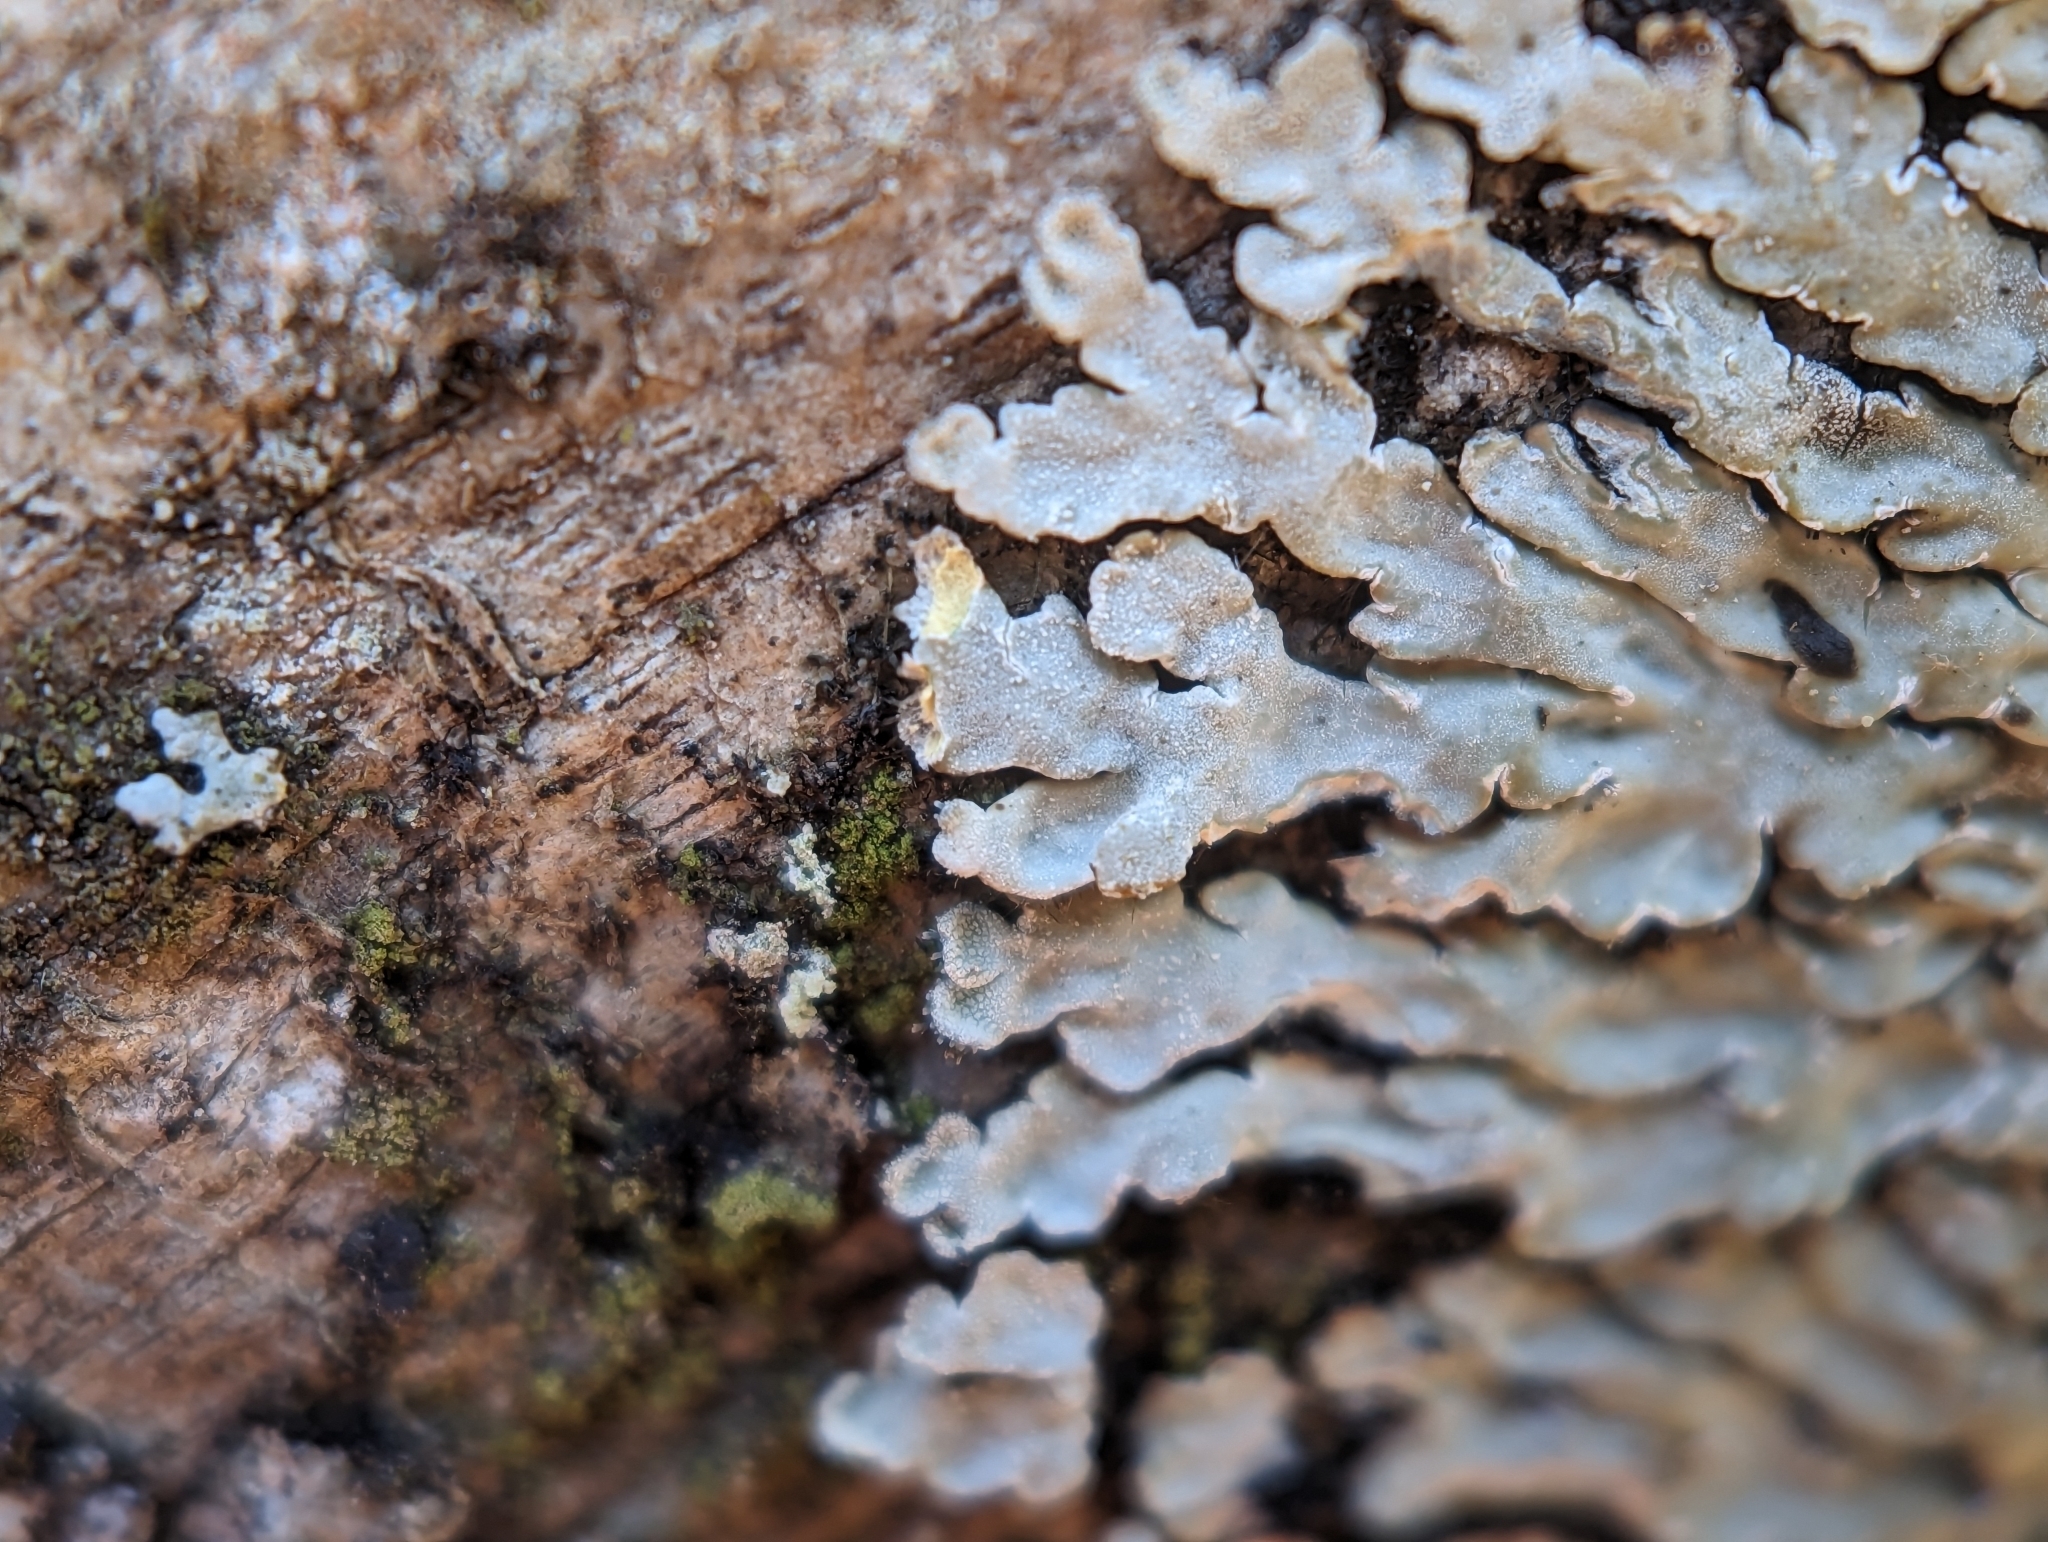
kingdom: Fungi
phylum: Ascomycota
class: Lecanoromycetes
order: Caliciales
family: Caliciaceae
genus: Pyxine
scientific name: Pyxine sorediata
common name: Mustard lichen
